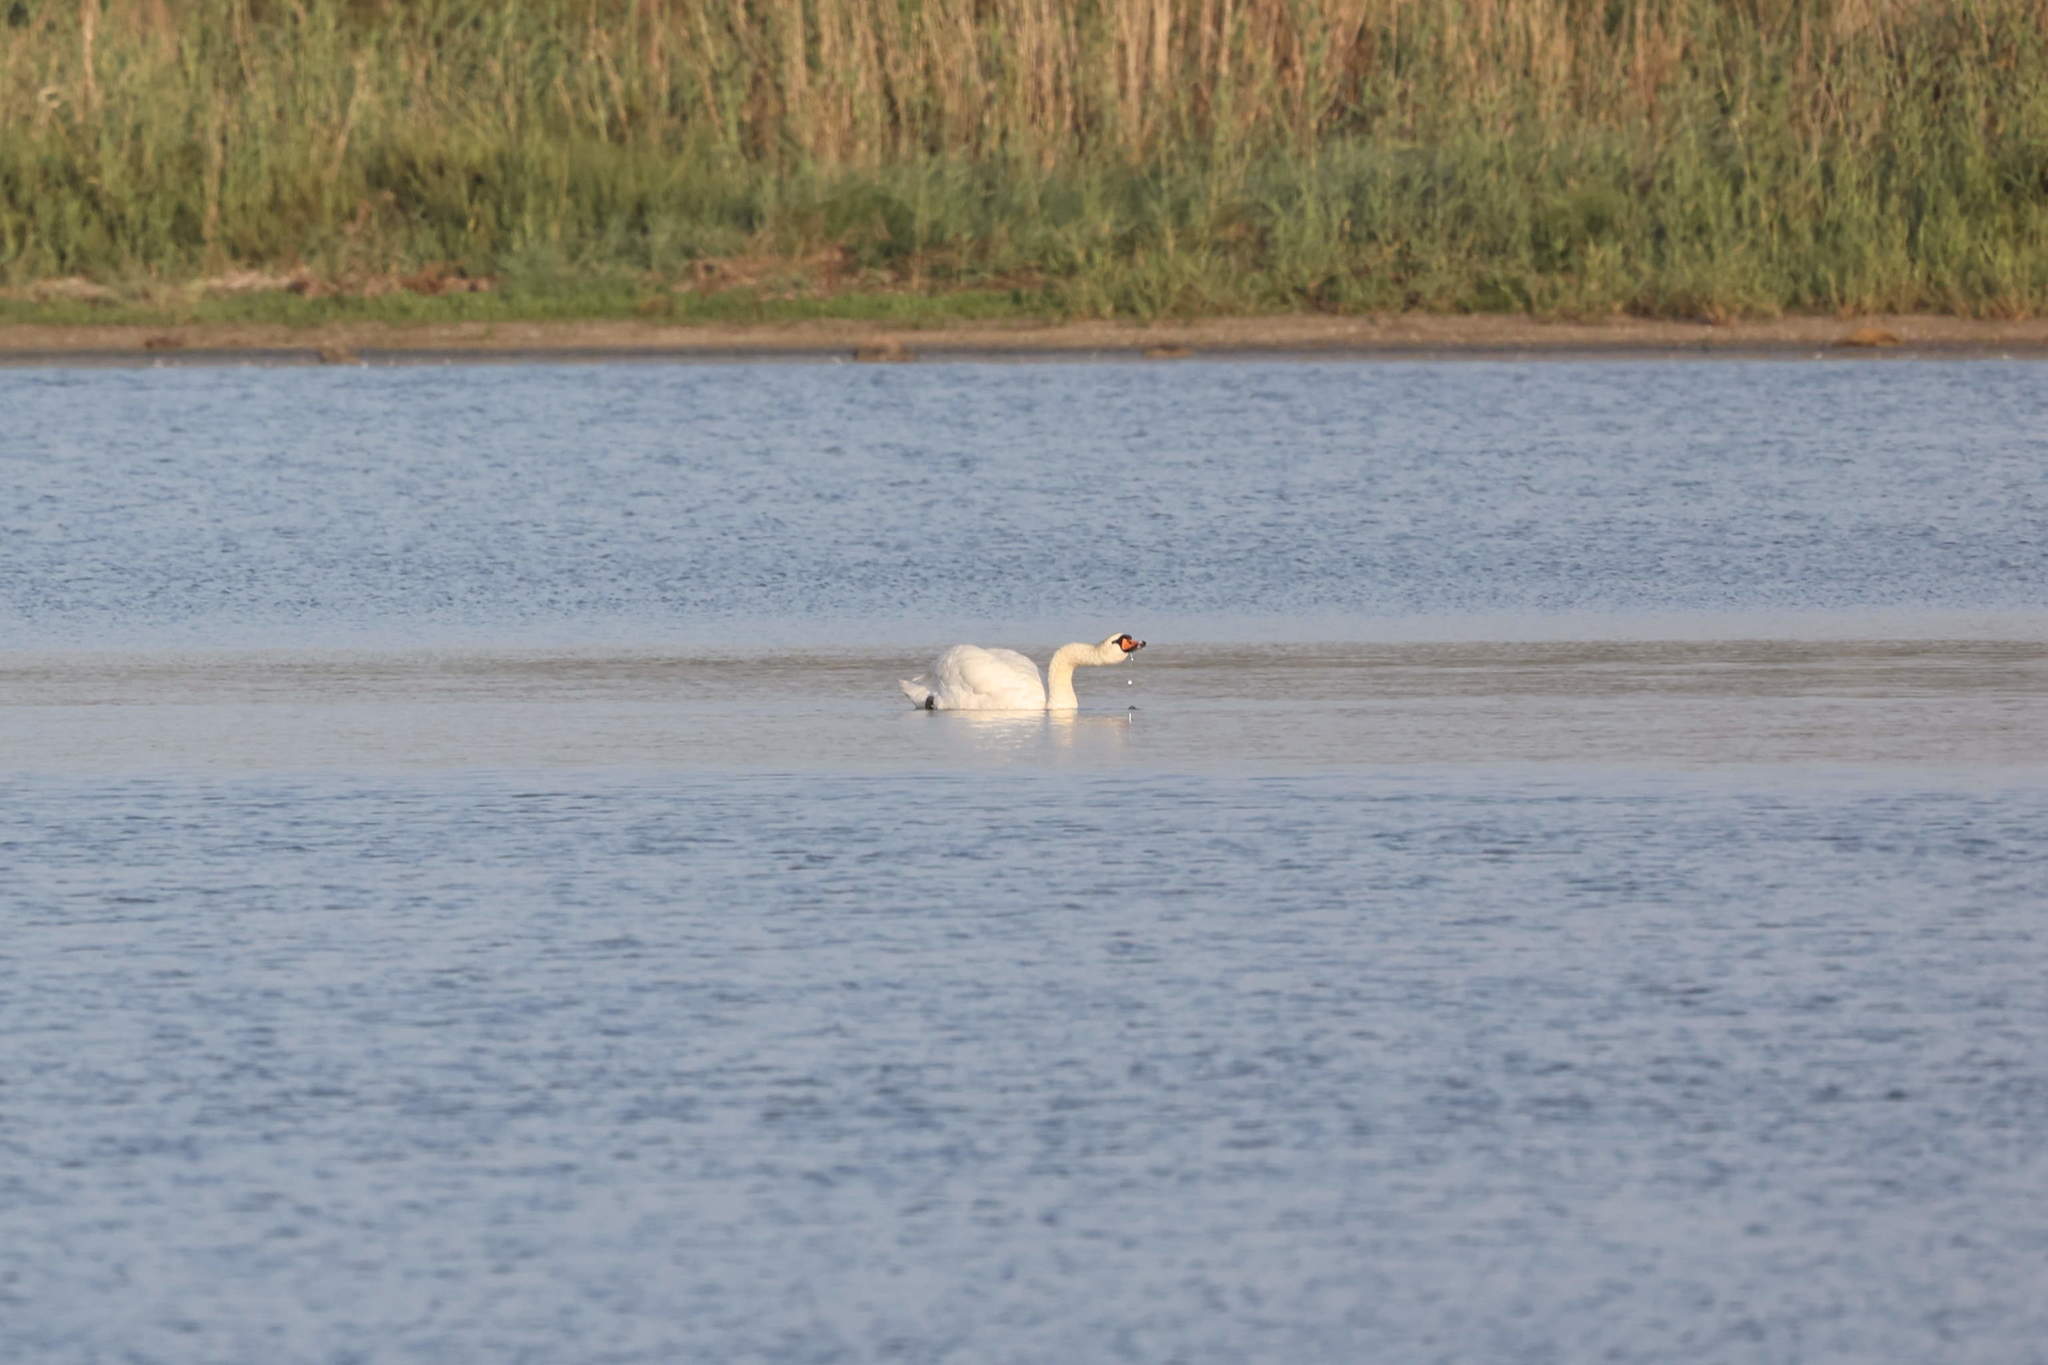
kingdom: Animalia
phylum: Chordata
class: Aves
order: Anseriformes
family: Anatidae
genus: Cygnus
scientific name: Cygnus olor
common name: Mute swan
